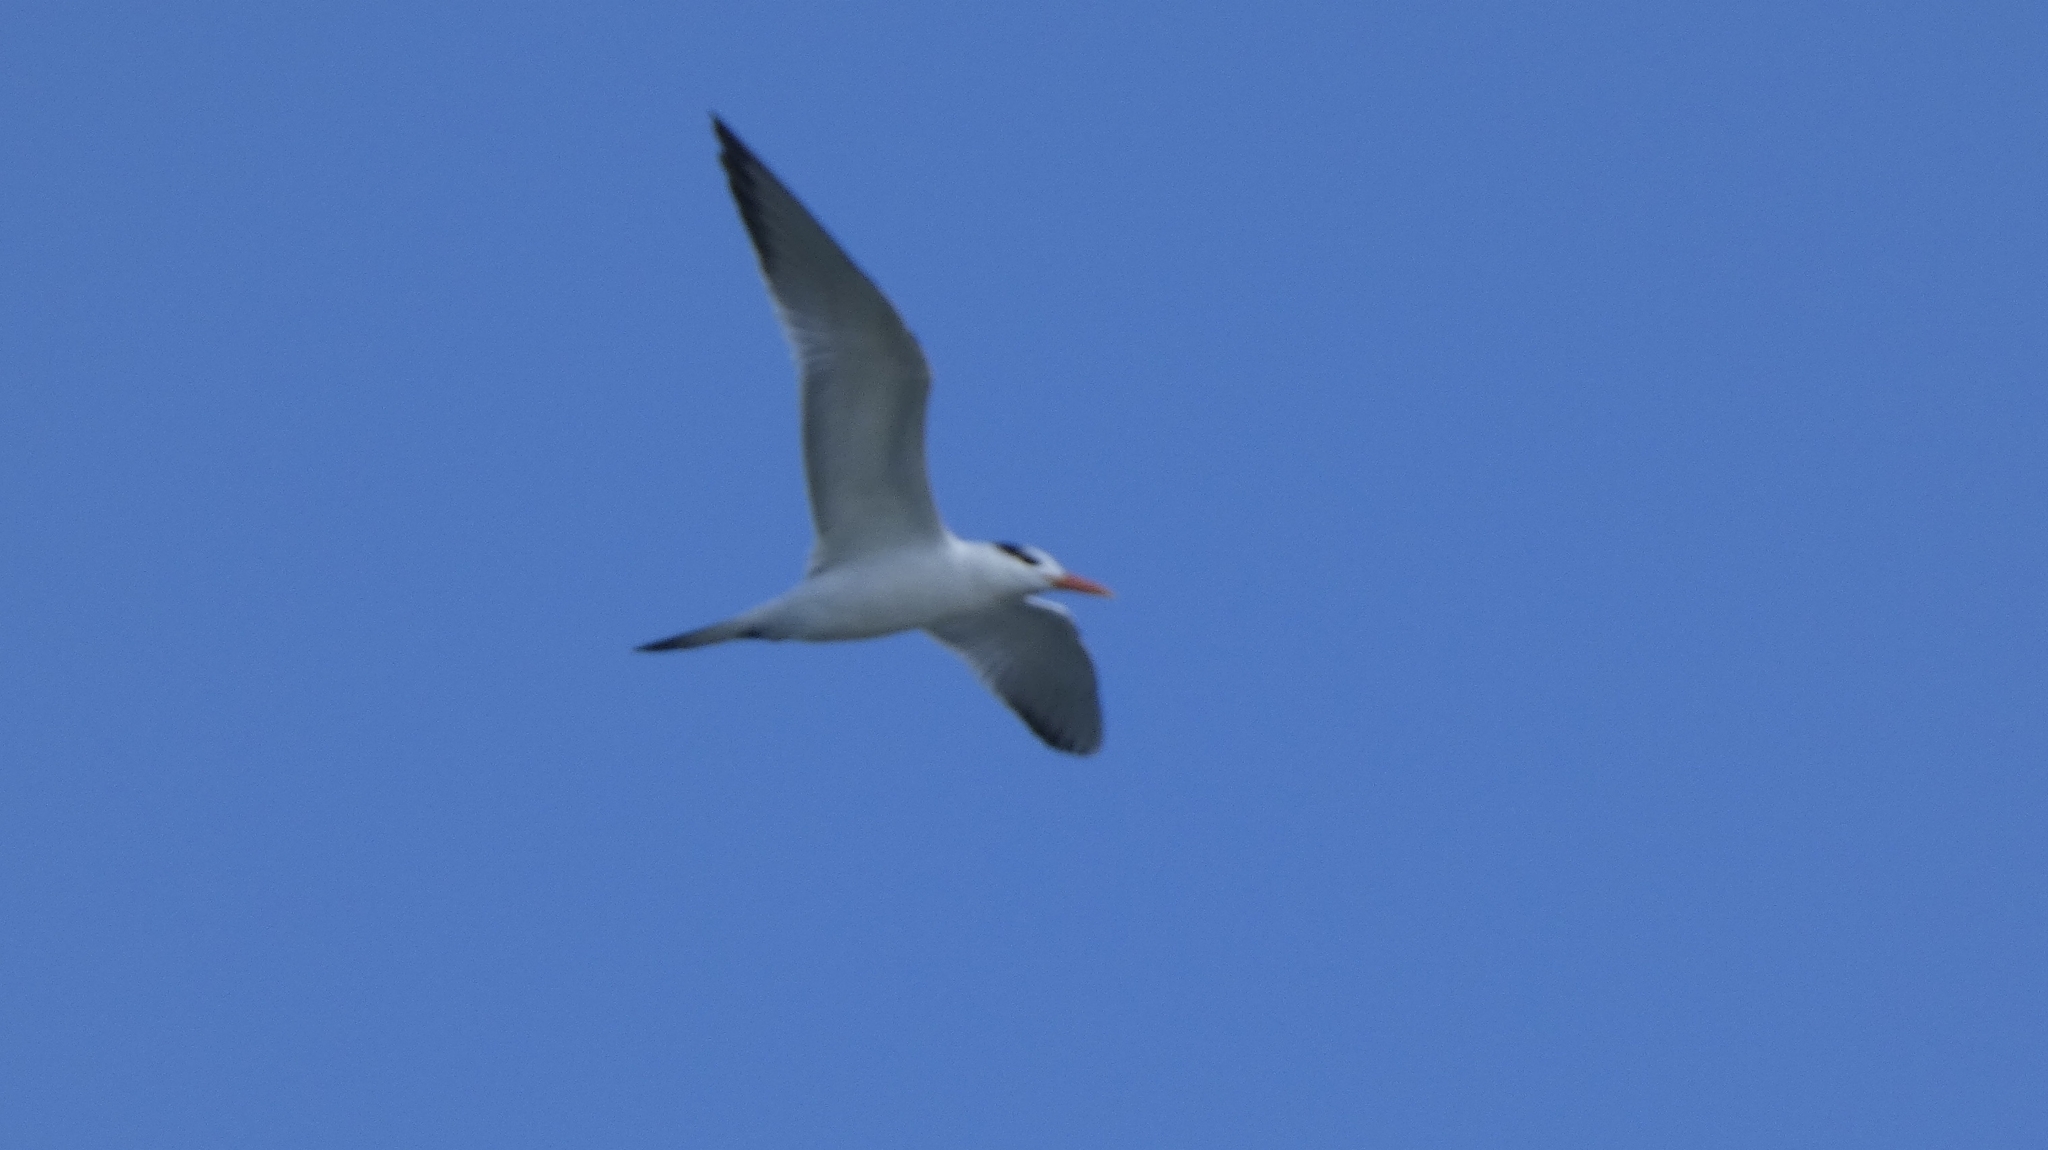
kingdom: Animalia
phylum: Chordata
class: Aves
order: Charadriiformes
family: Laridae
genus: Thalasseus
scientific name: Thalasseus maximus
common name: Royal tern
